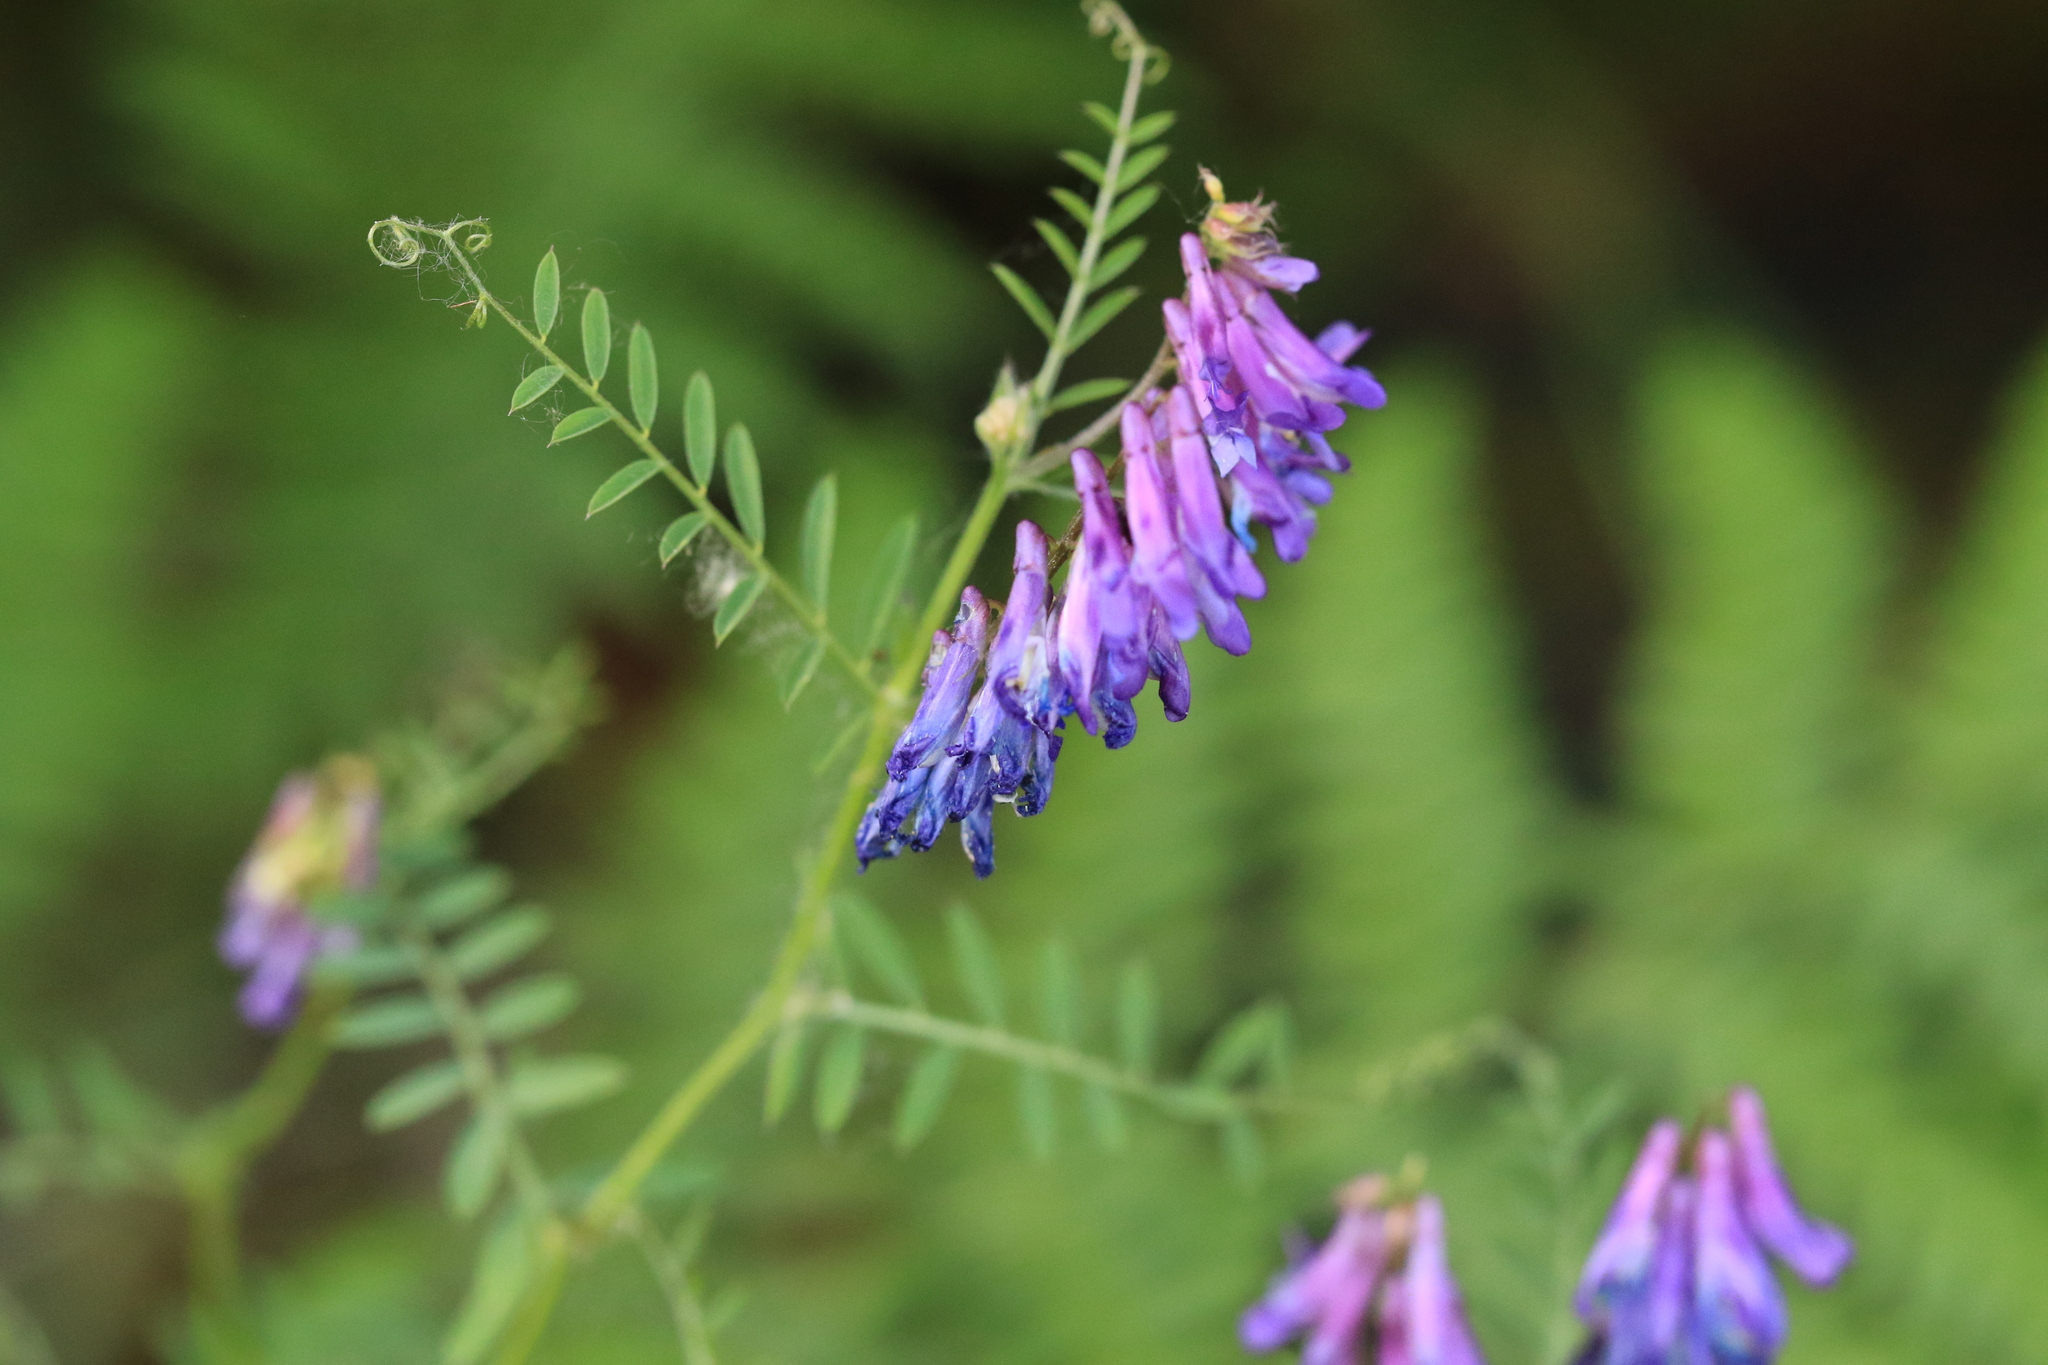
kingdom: Plantae
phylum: Tracheophyta
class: Magnoliopsida
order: Fabales
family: Fabaceae
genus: Vicia
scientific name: Vicia villosa
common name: Fodder vetch
